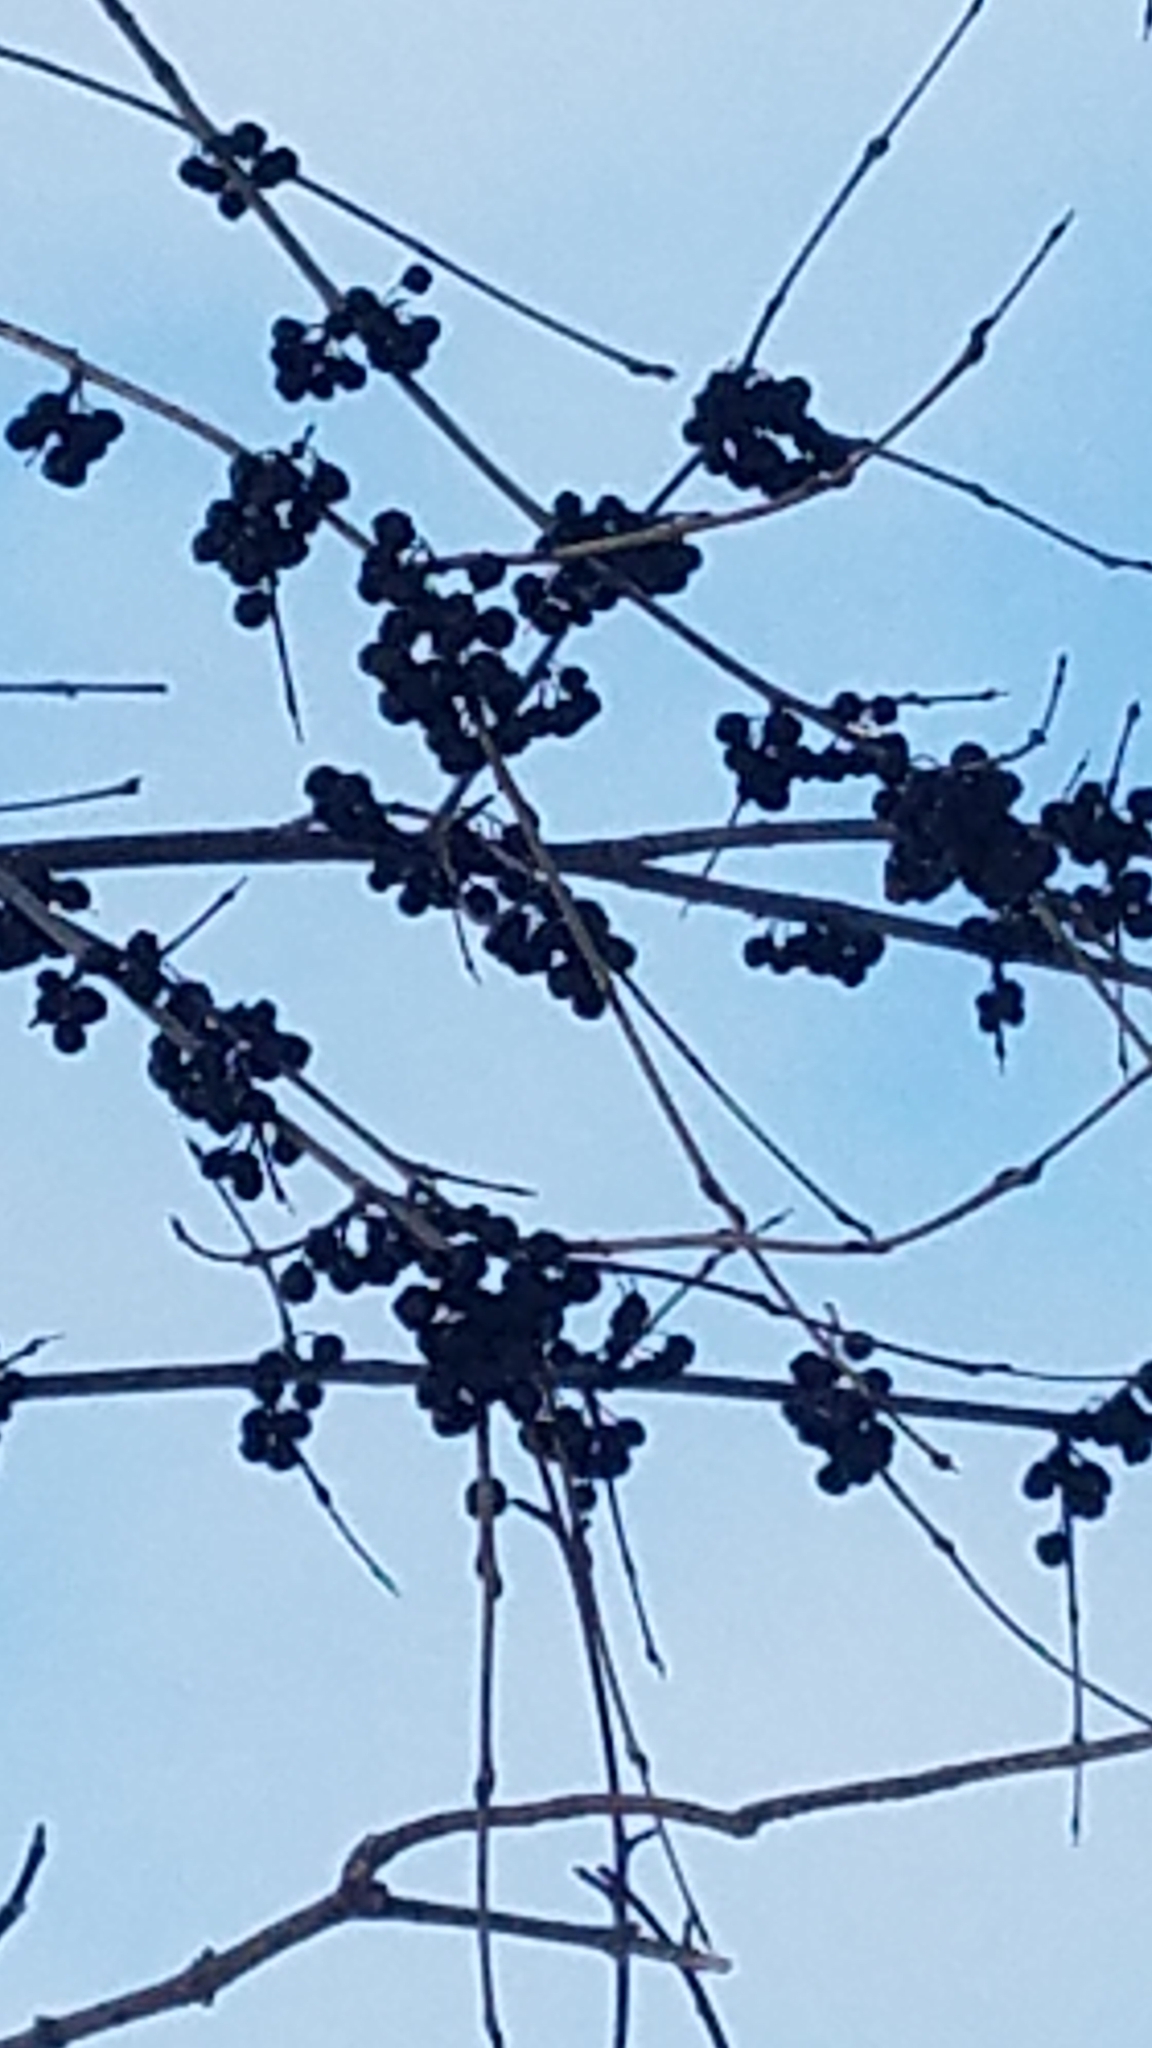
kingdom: Plantae
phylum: Tracheophyta
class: Magnoliopsida
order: Rosales
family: Rhamnaceae
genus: Rhamnus
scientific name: Rhamnus cathartica
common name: Common buckthorn
